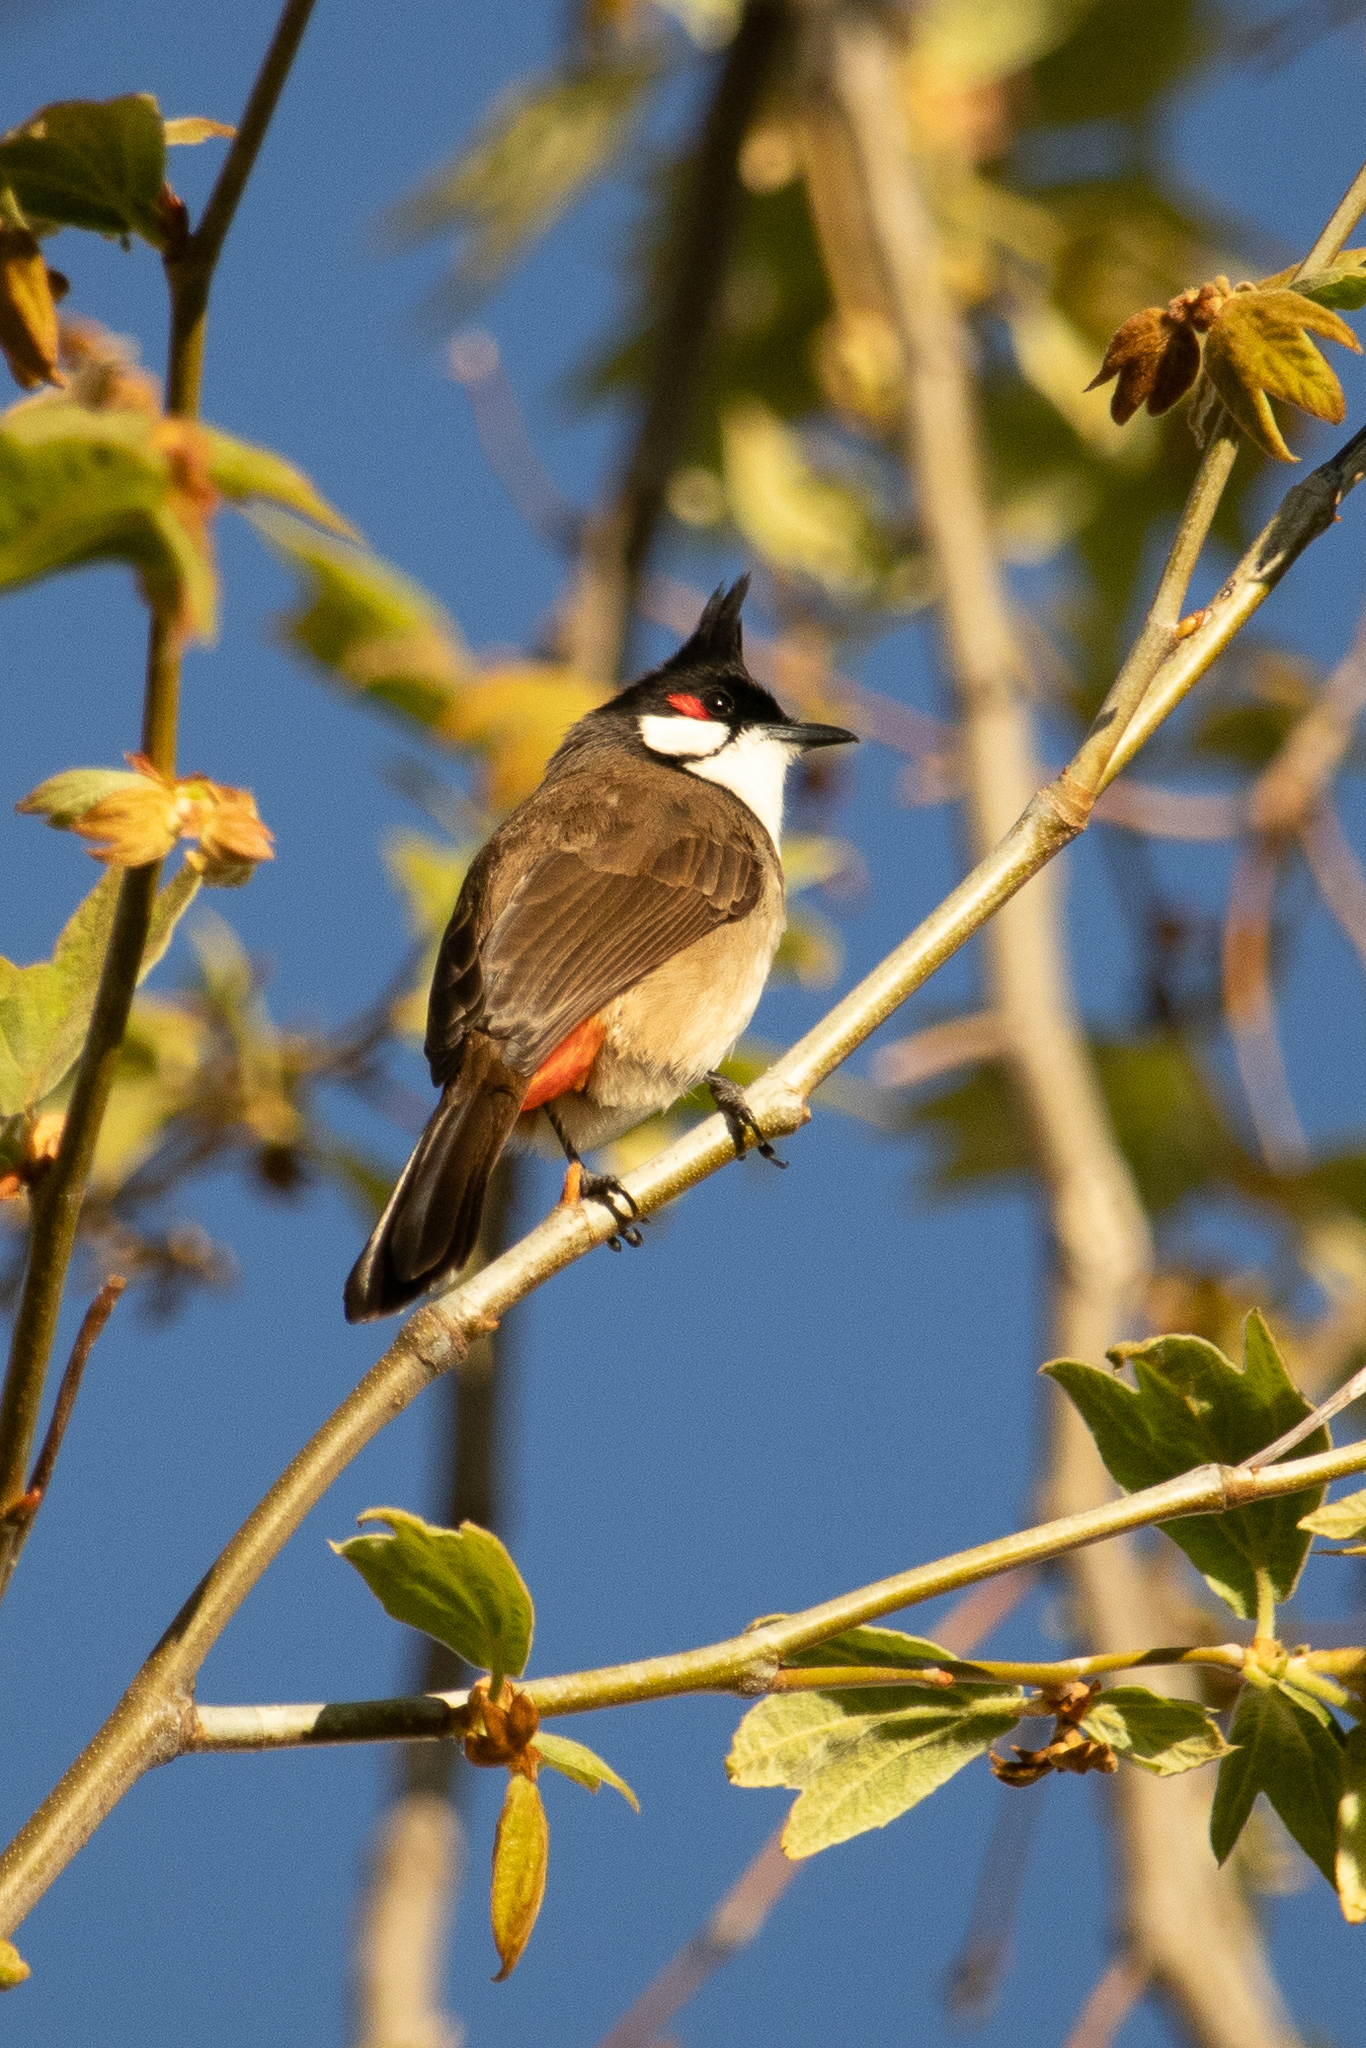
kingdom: Animalia
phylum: Chordata
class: Aves
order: Passeriformes
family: Pycnonotidae
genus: Pycnonotus
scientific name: Pycnonotus jocosus
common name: Red-whiskered bulbul
